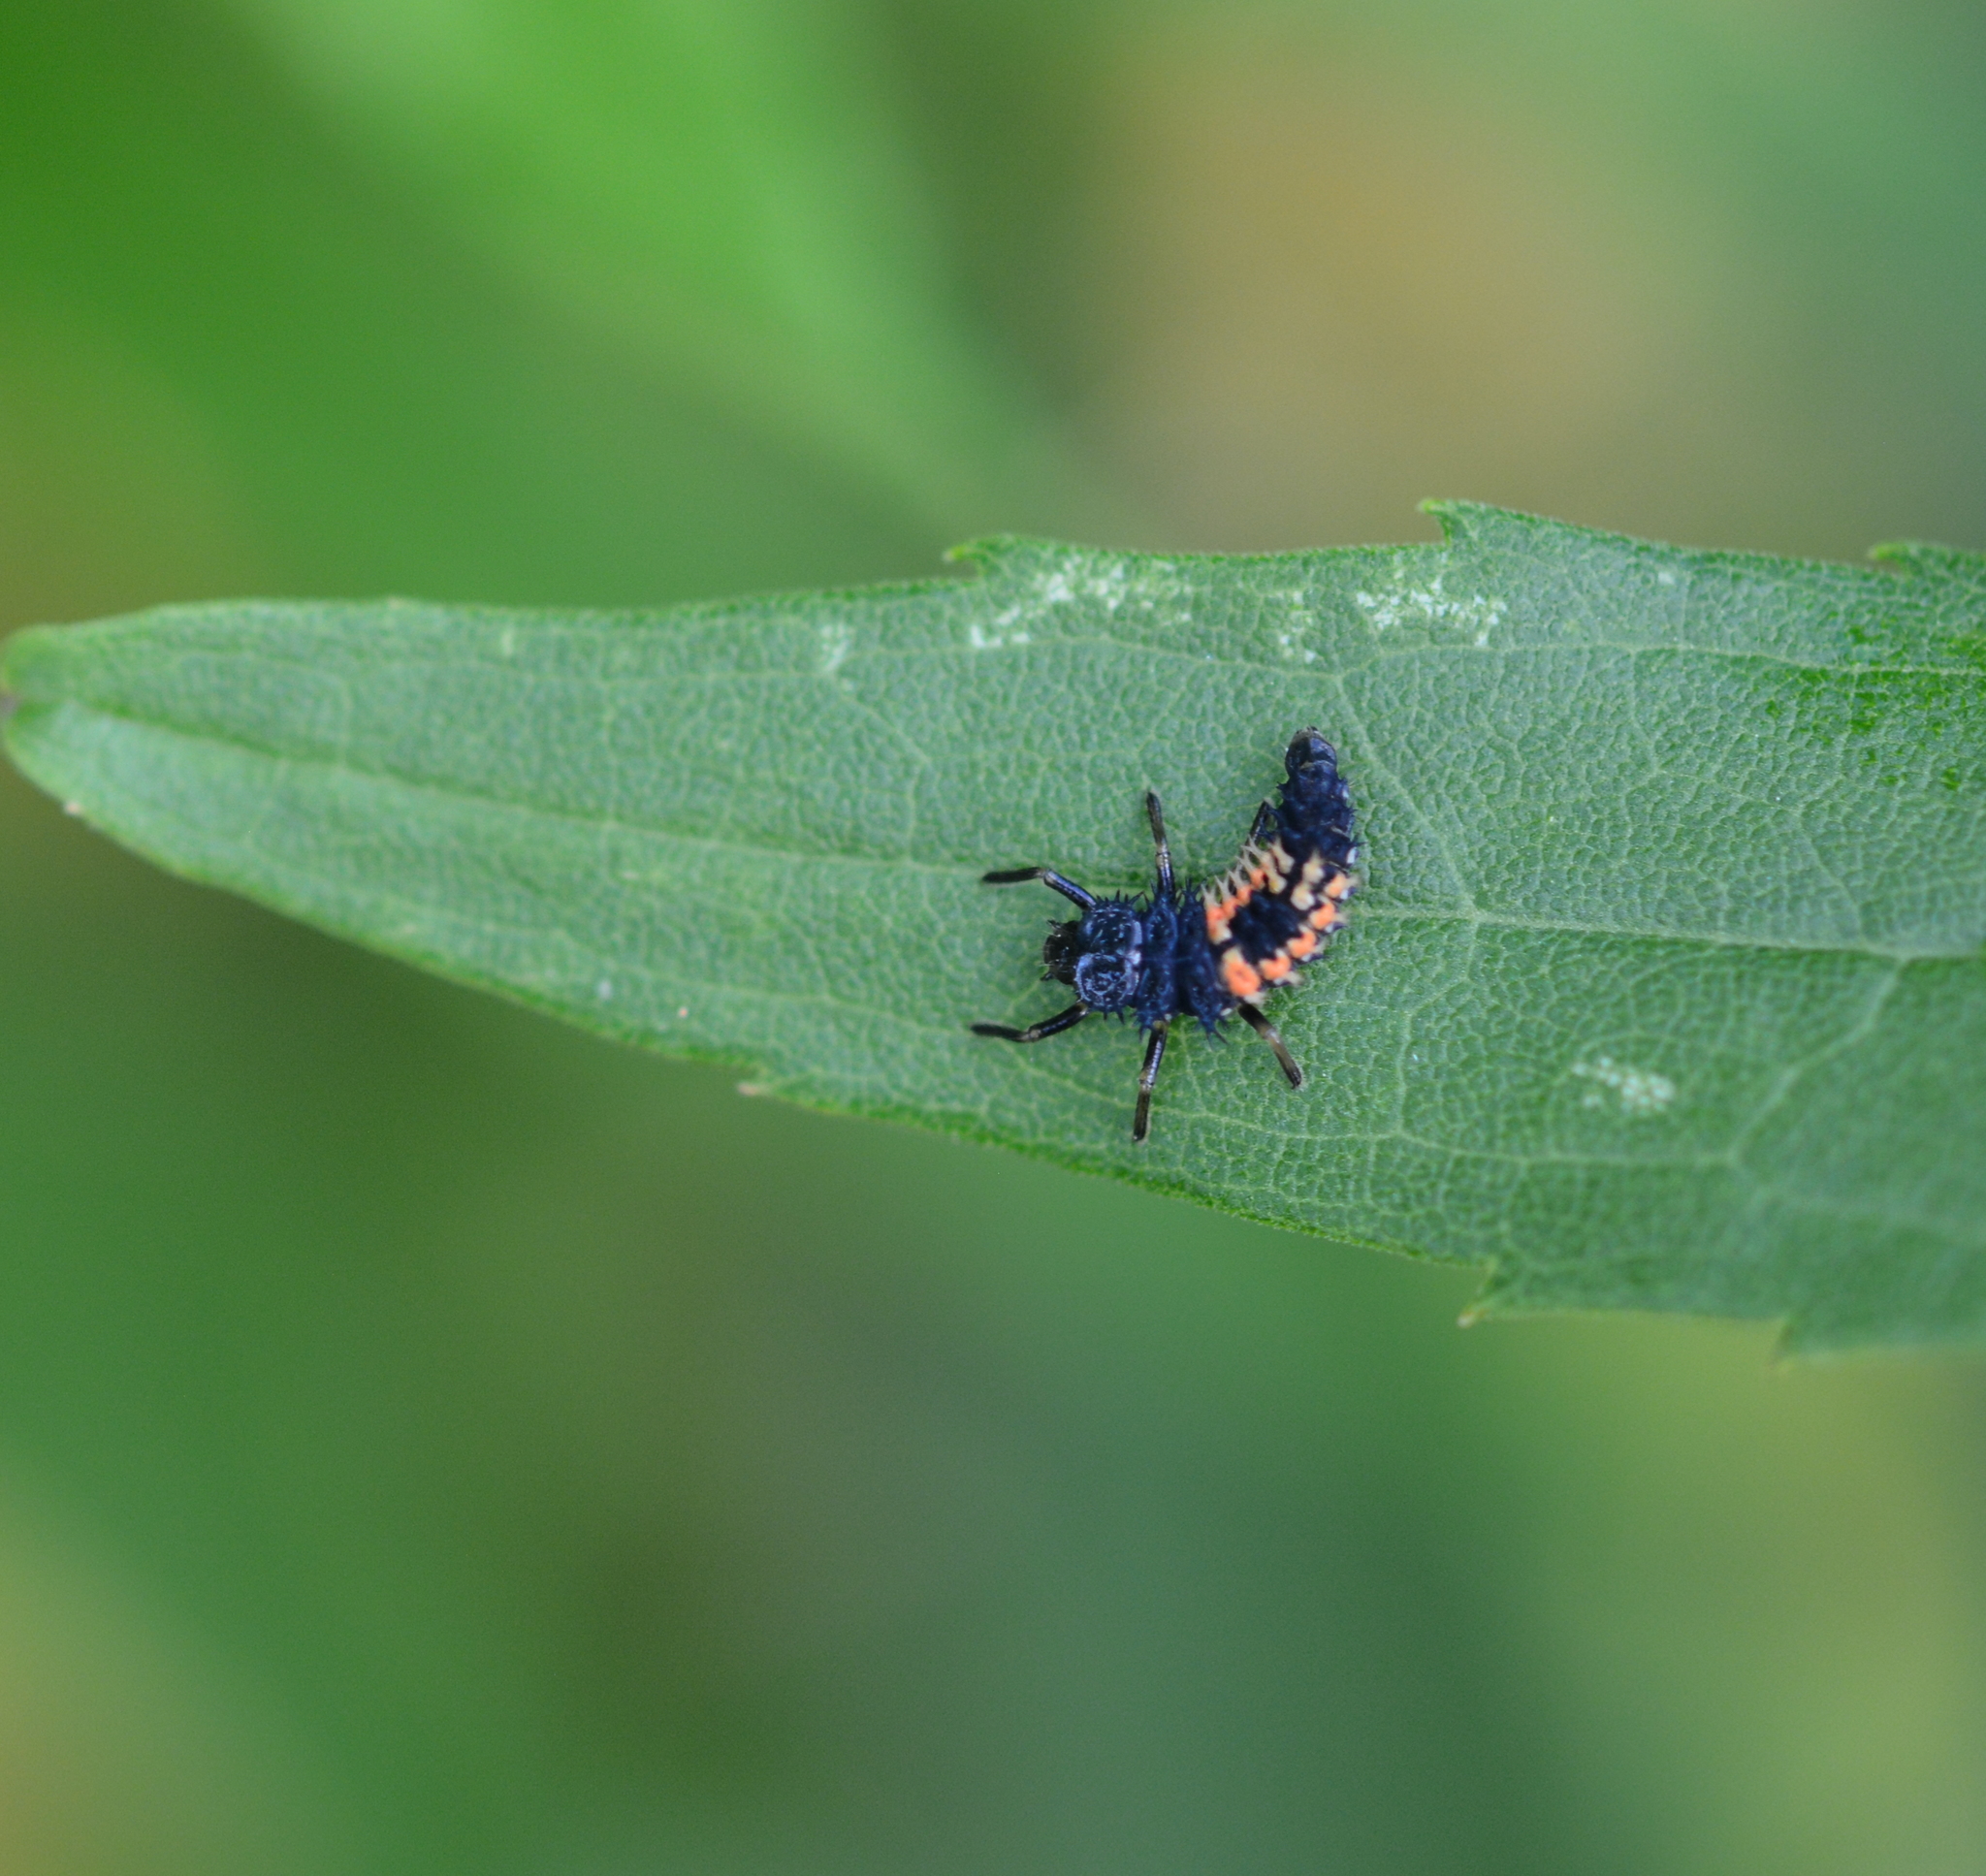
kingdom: Animalia
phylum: Arthropoda
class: Insecta
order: Coleoptera
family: Coccinellidae
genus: Harmonia
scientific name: Harmonia axyridis
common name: Harlequin ladybird
